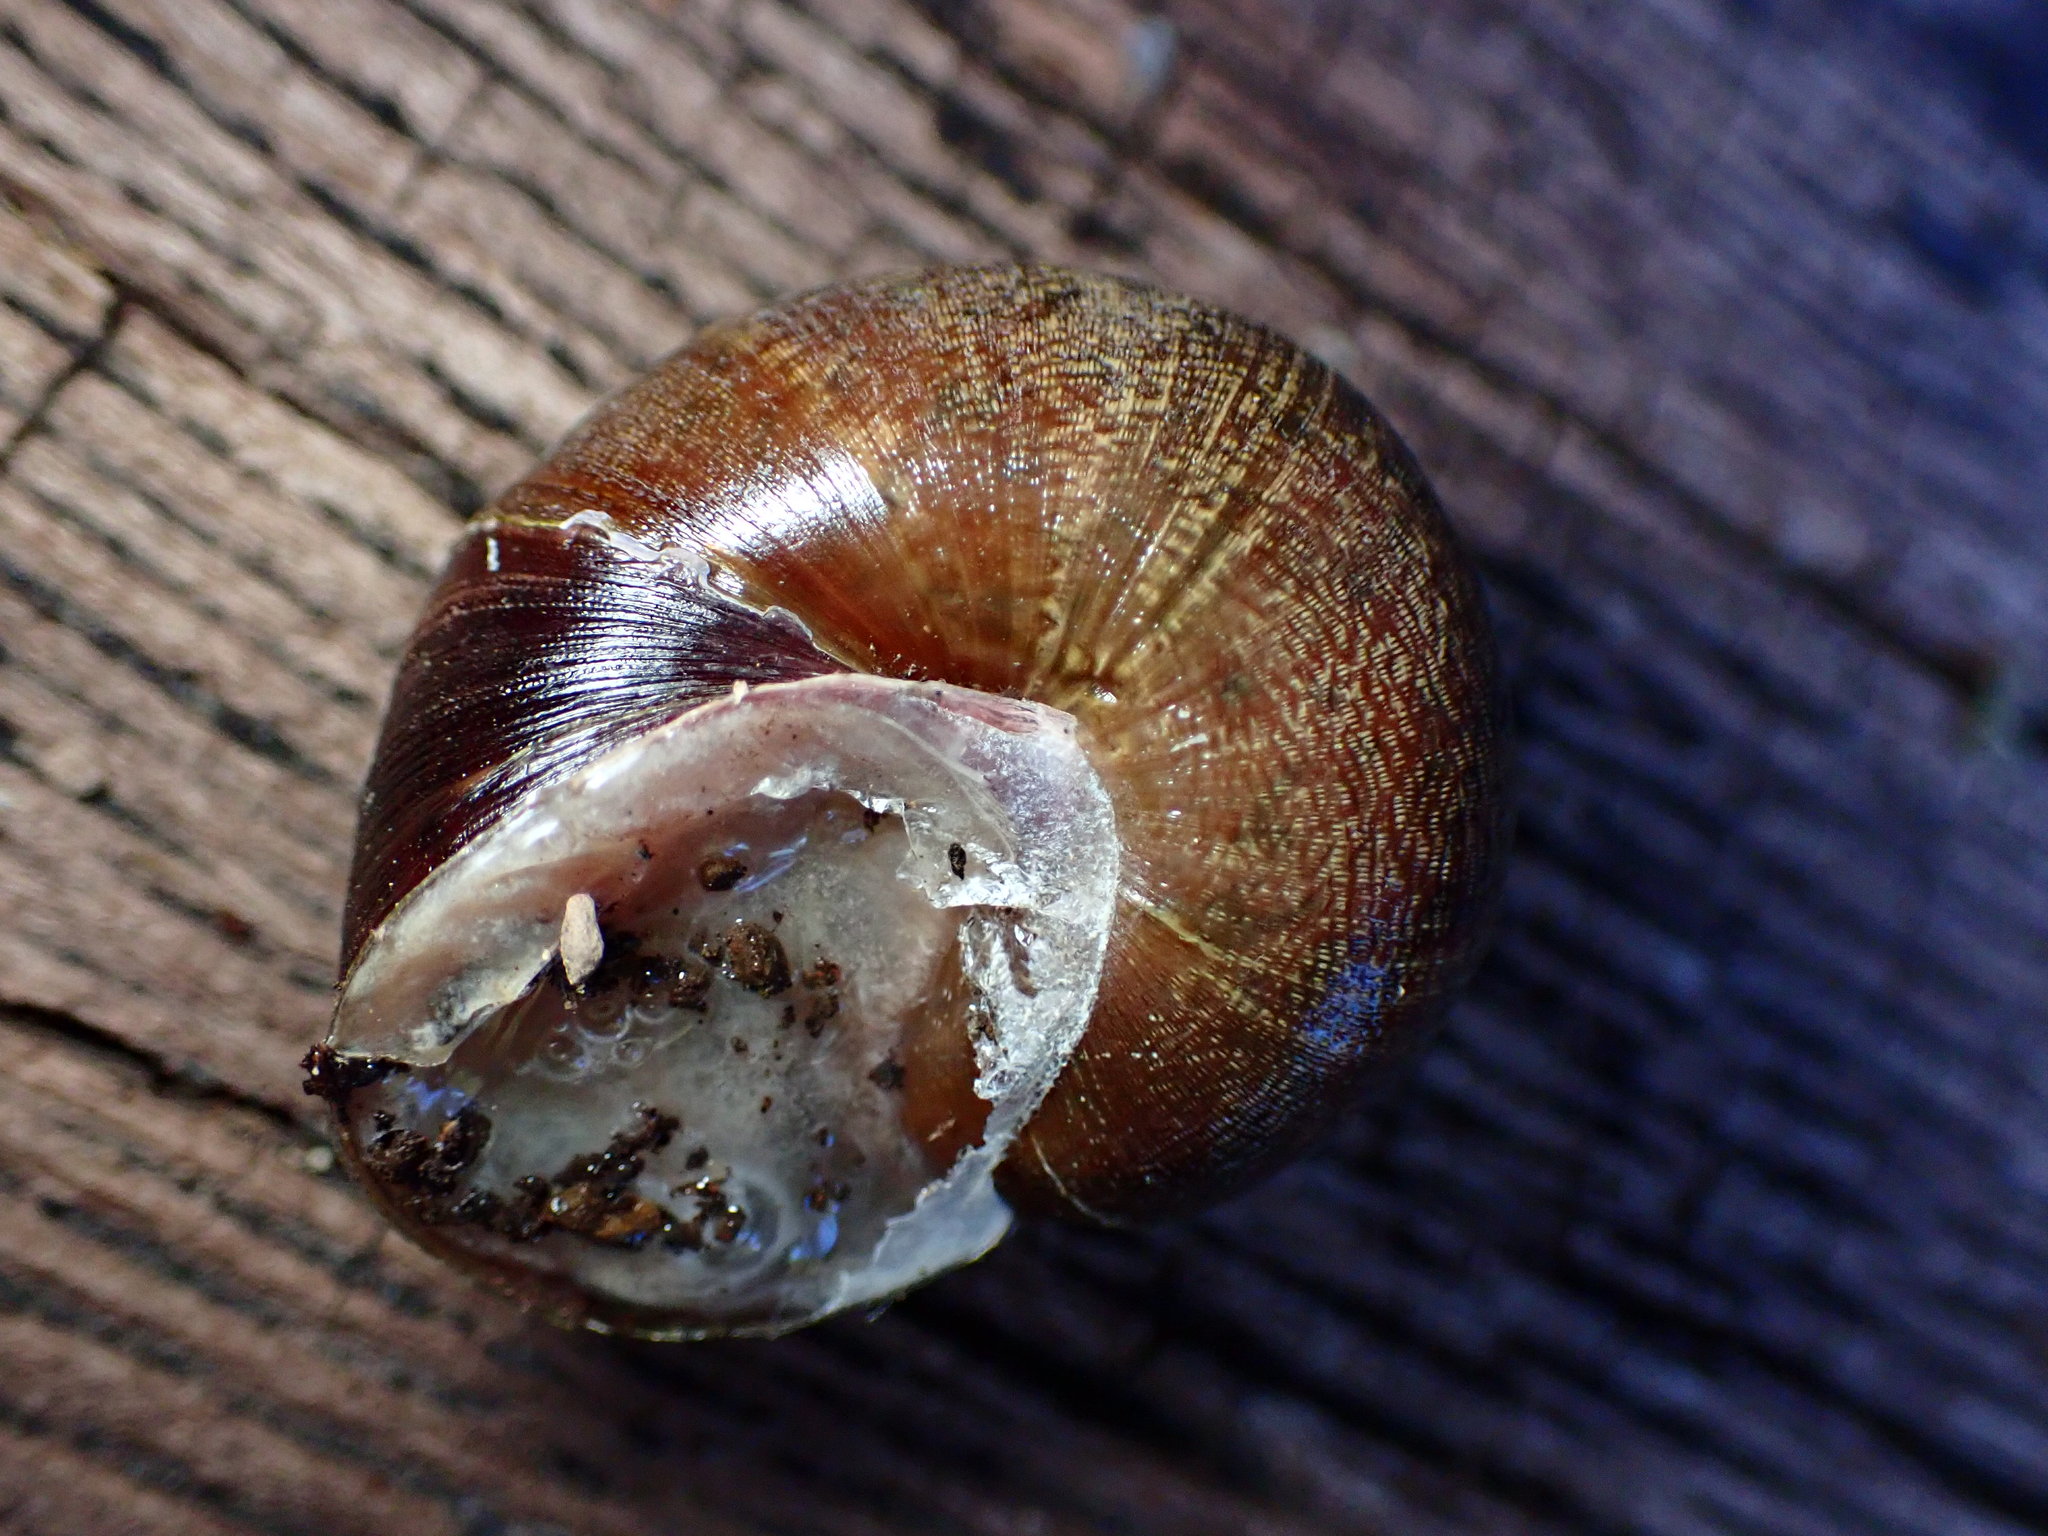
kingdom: Animalia
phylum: Mollusca
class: Gastropoda
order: Stylommatophora
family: Xanthonychidae
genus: Helminthoglypta
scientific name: Helminthoglypta nickliniana
